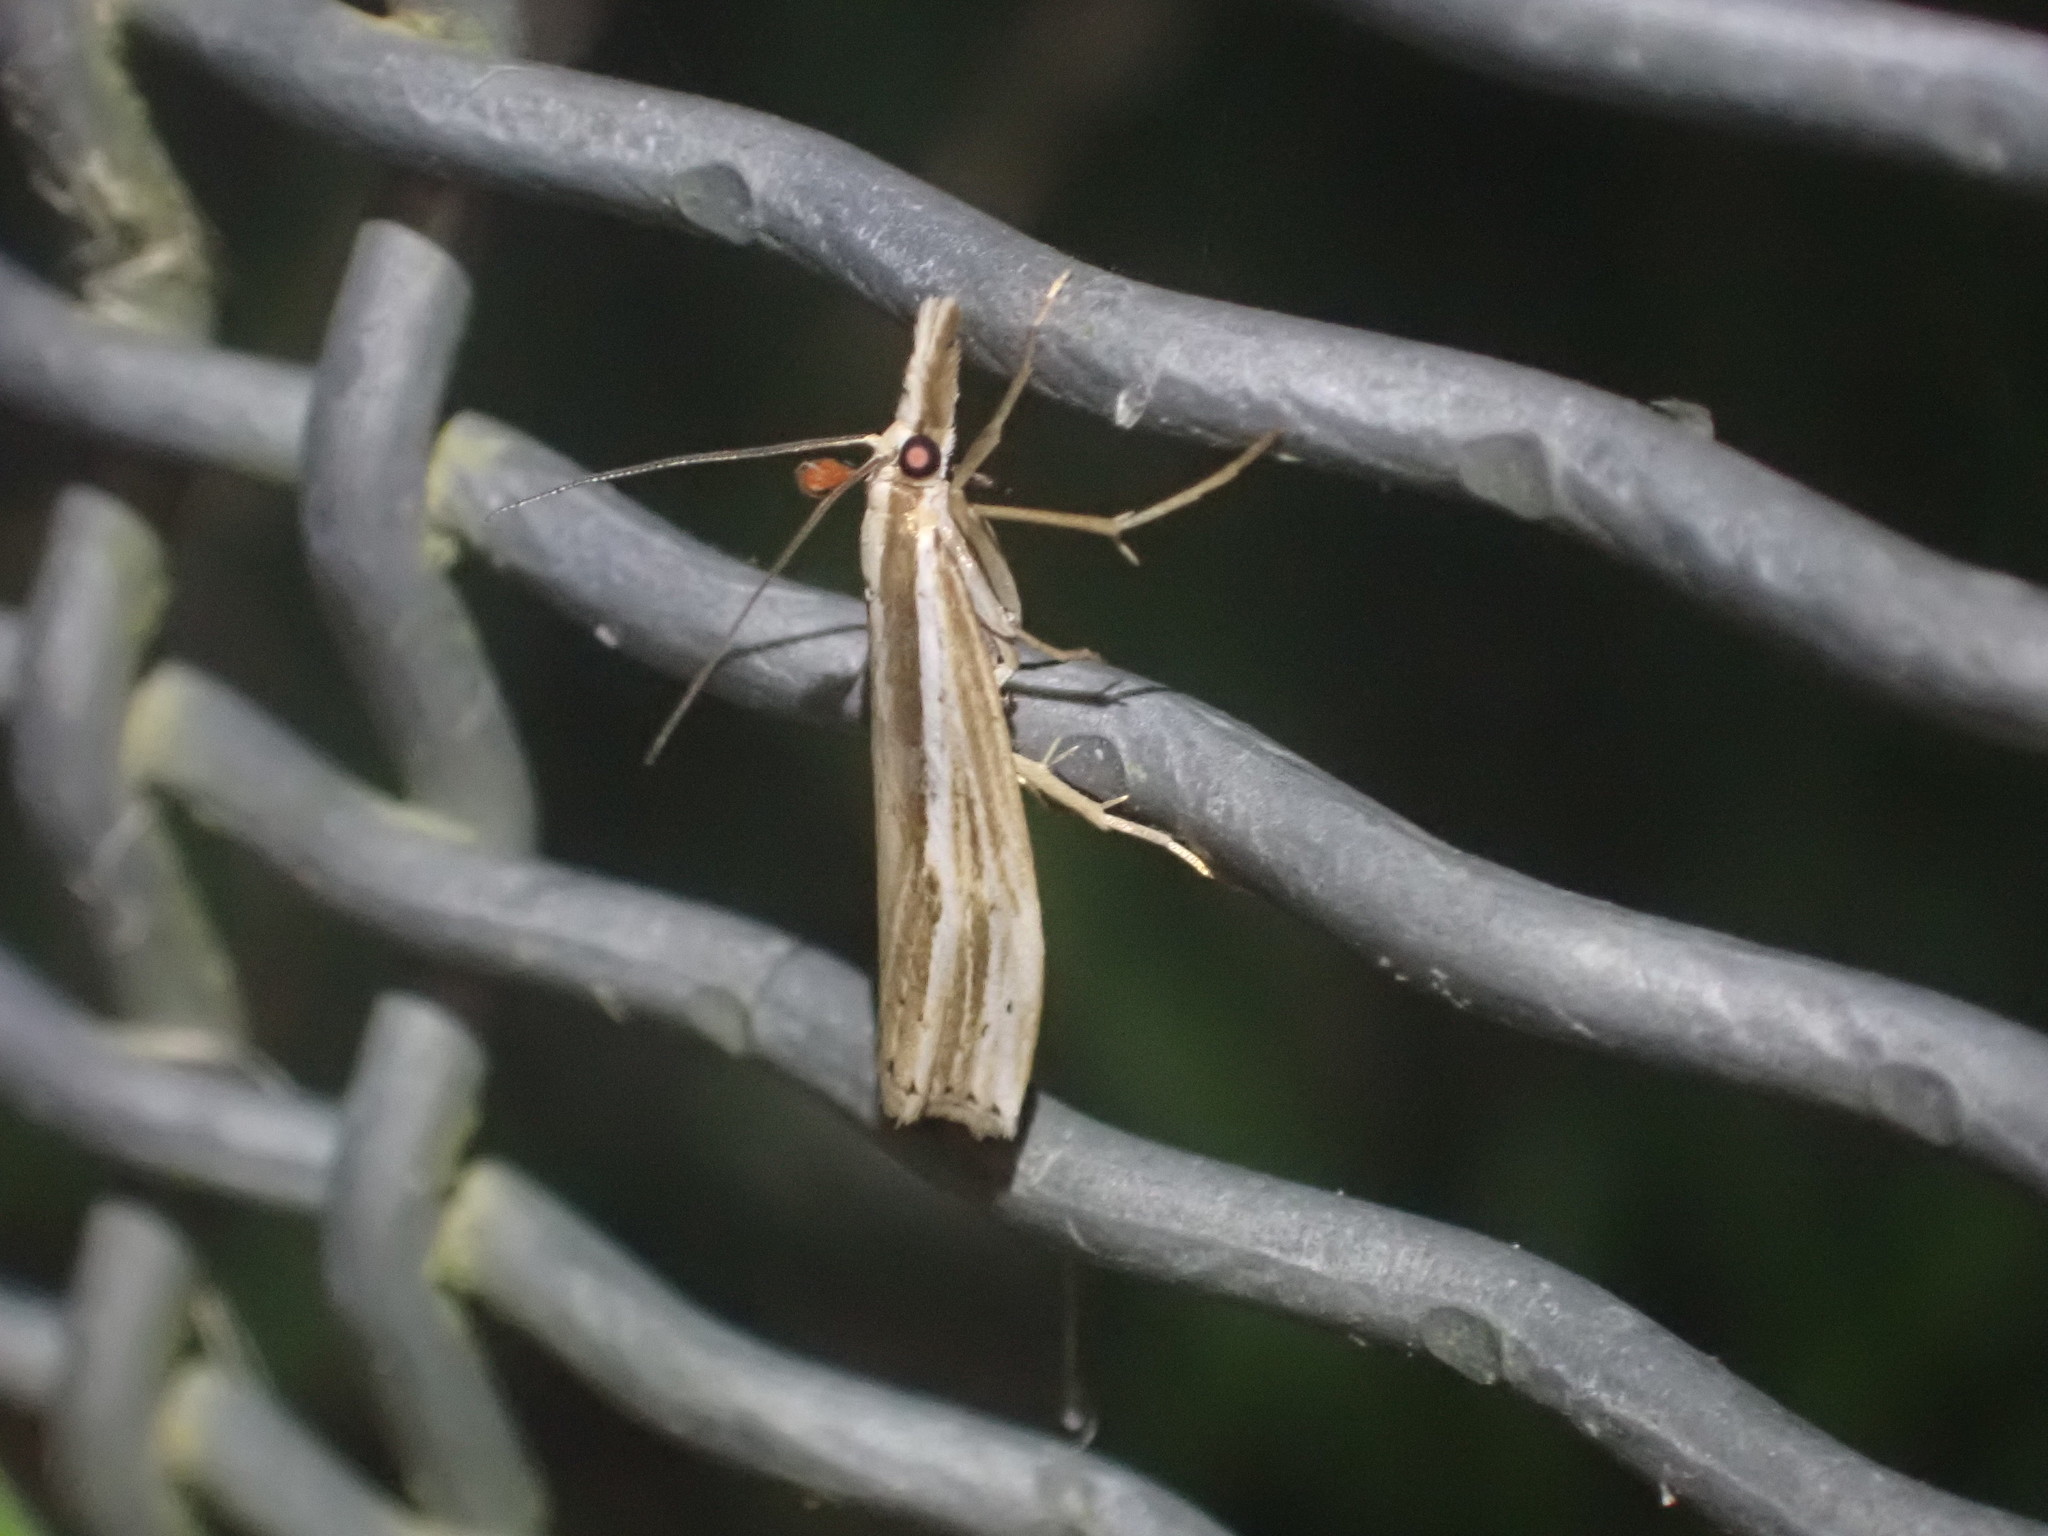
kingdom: Animalia
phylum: Arthropoda
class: Insecta
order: Lepidoptera
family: Crambidae
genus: Orocrambus
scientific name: Orocrambus ramosellus
